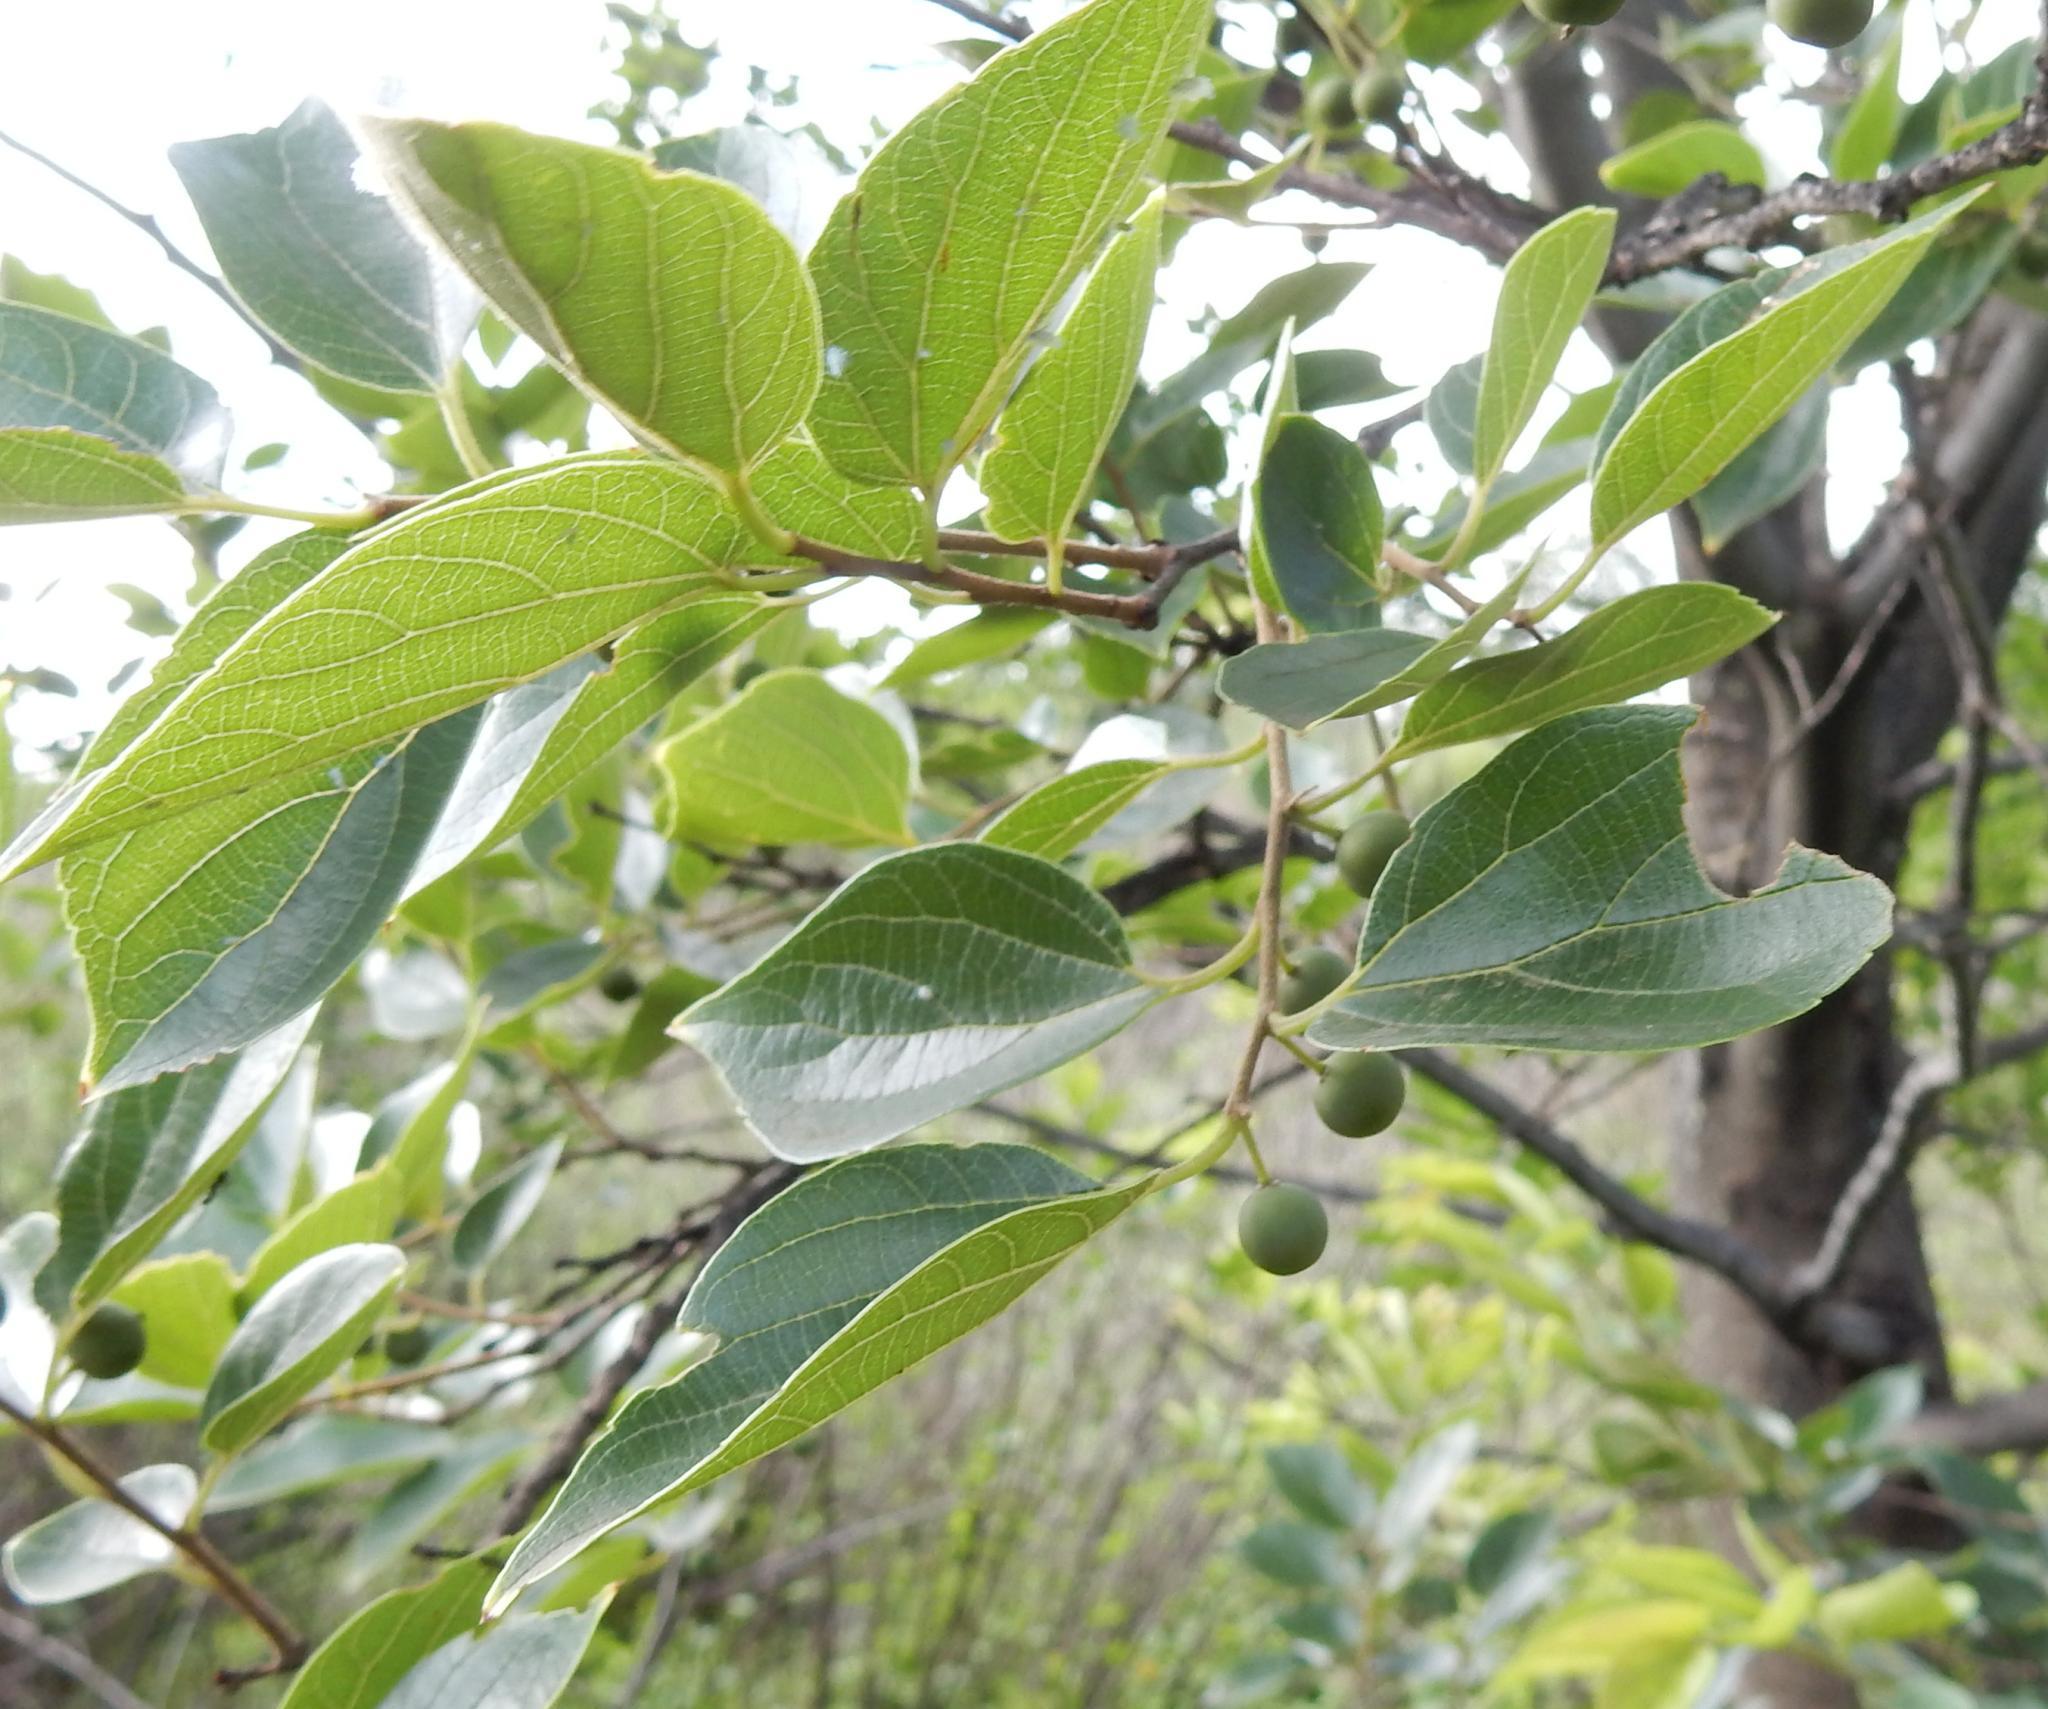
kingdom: Plantae
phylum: Tracheophyta
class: Magnoliopsida
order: Rosales
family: Cannabaceae
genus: Celtis
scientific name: Celtis sinensis
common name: Chinese hackberry
